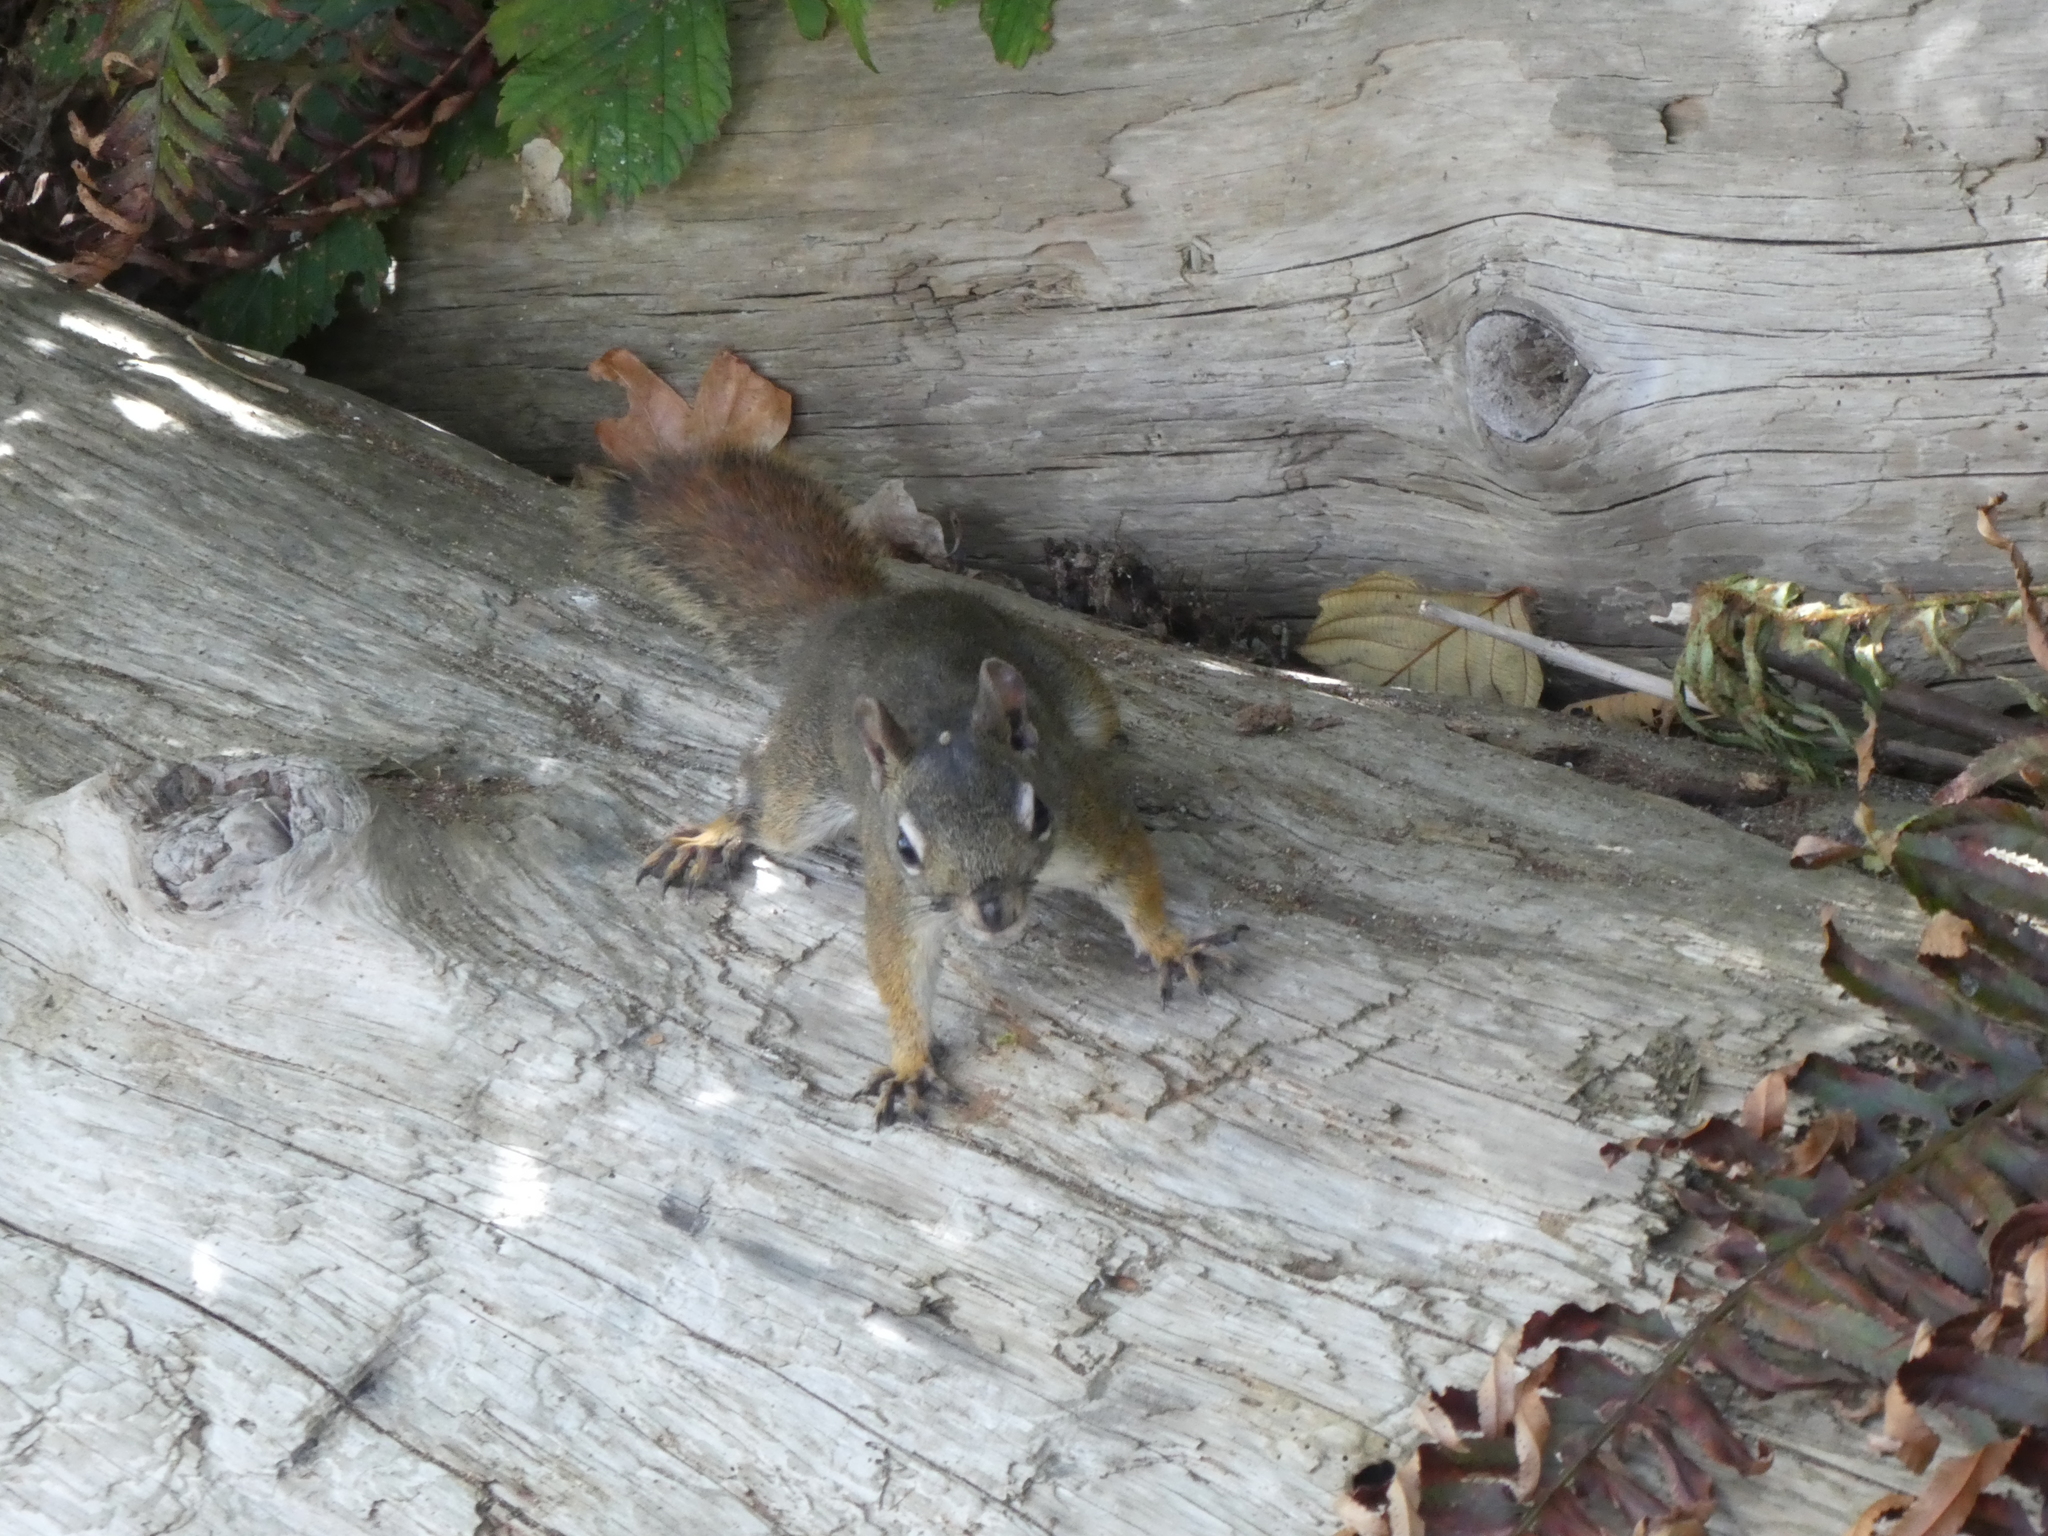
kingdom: Animalia
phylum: Chordata
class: Mammalia
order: Rodentia
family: Sciuridae
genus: Tamiasciurus
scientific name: Tamiasciurus hudsonicus
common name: Red squirrel
